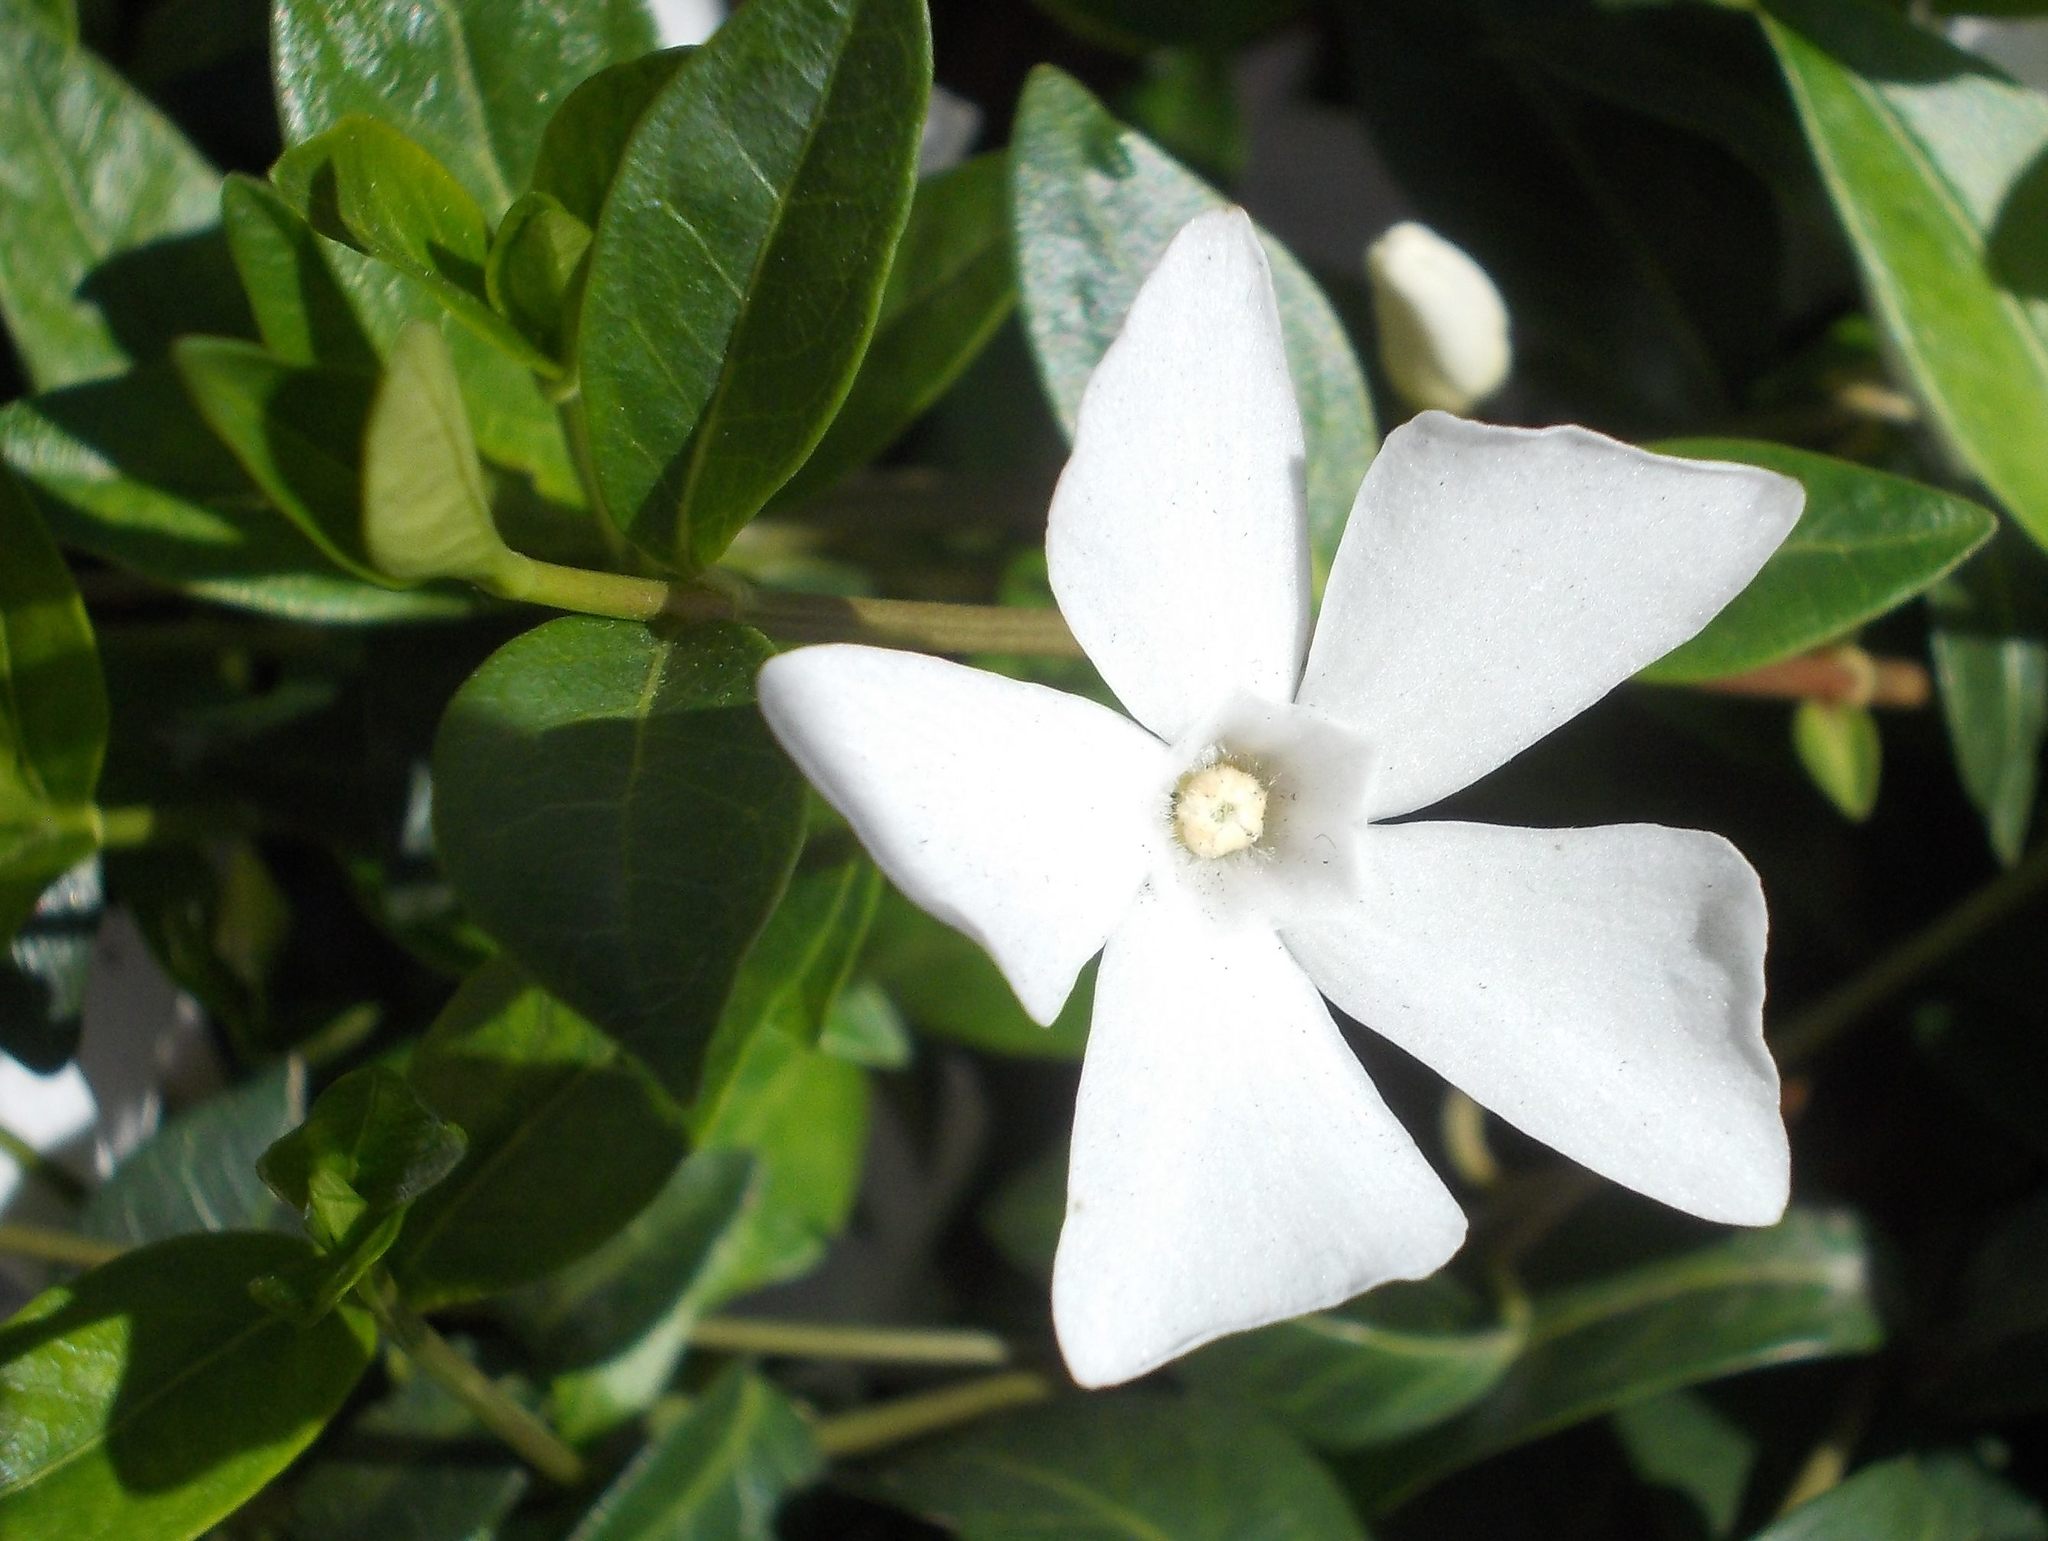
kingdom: Plantae
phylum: Tracheophyta
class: Magnoliopsida
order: Gentianales
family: Apocynaceae
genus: Vinca
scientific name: Vinca minor
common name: Lesser periwinkle
